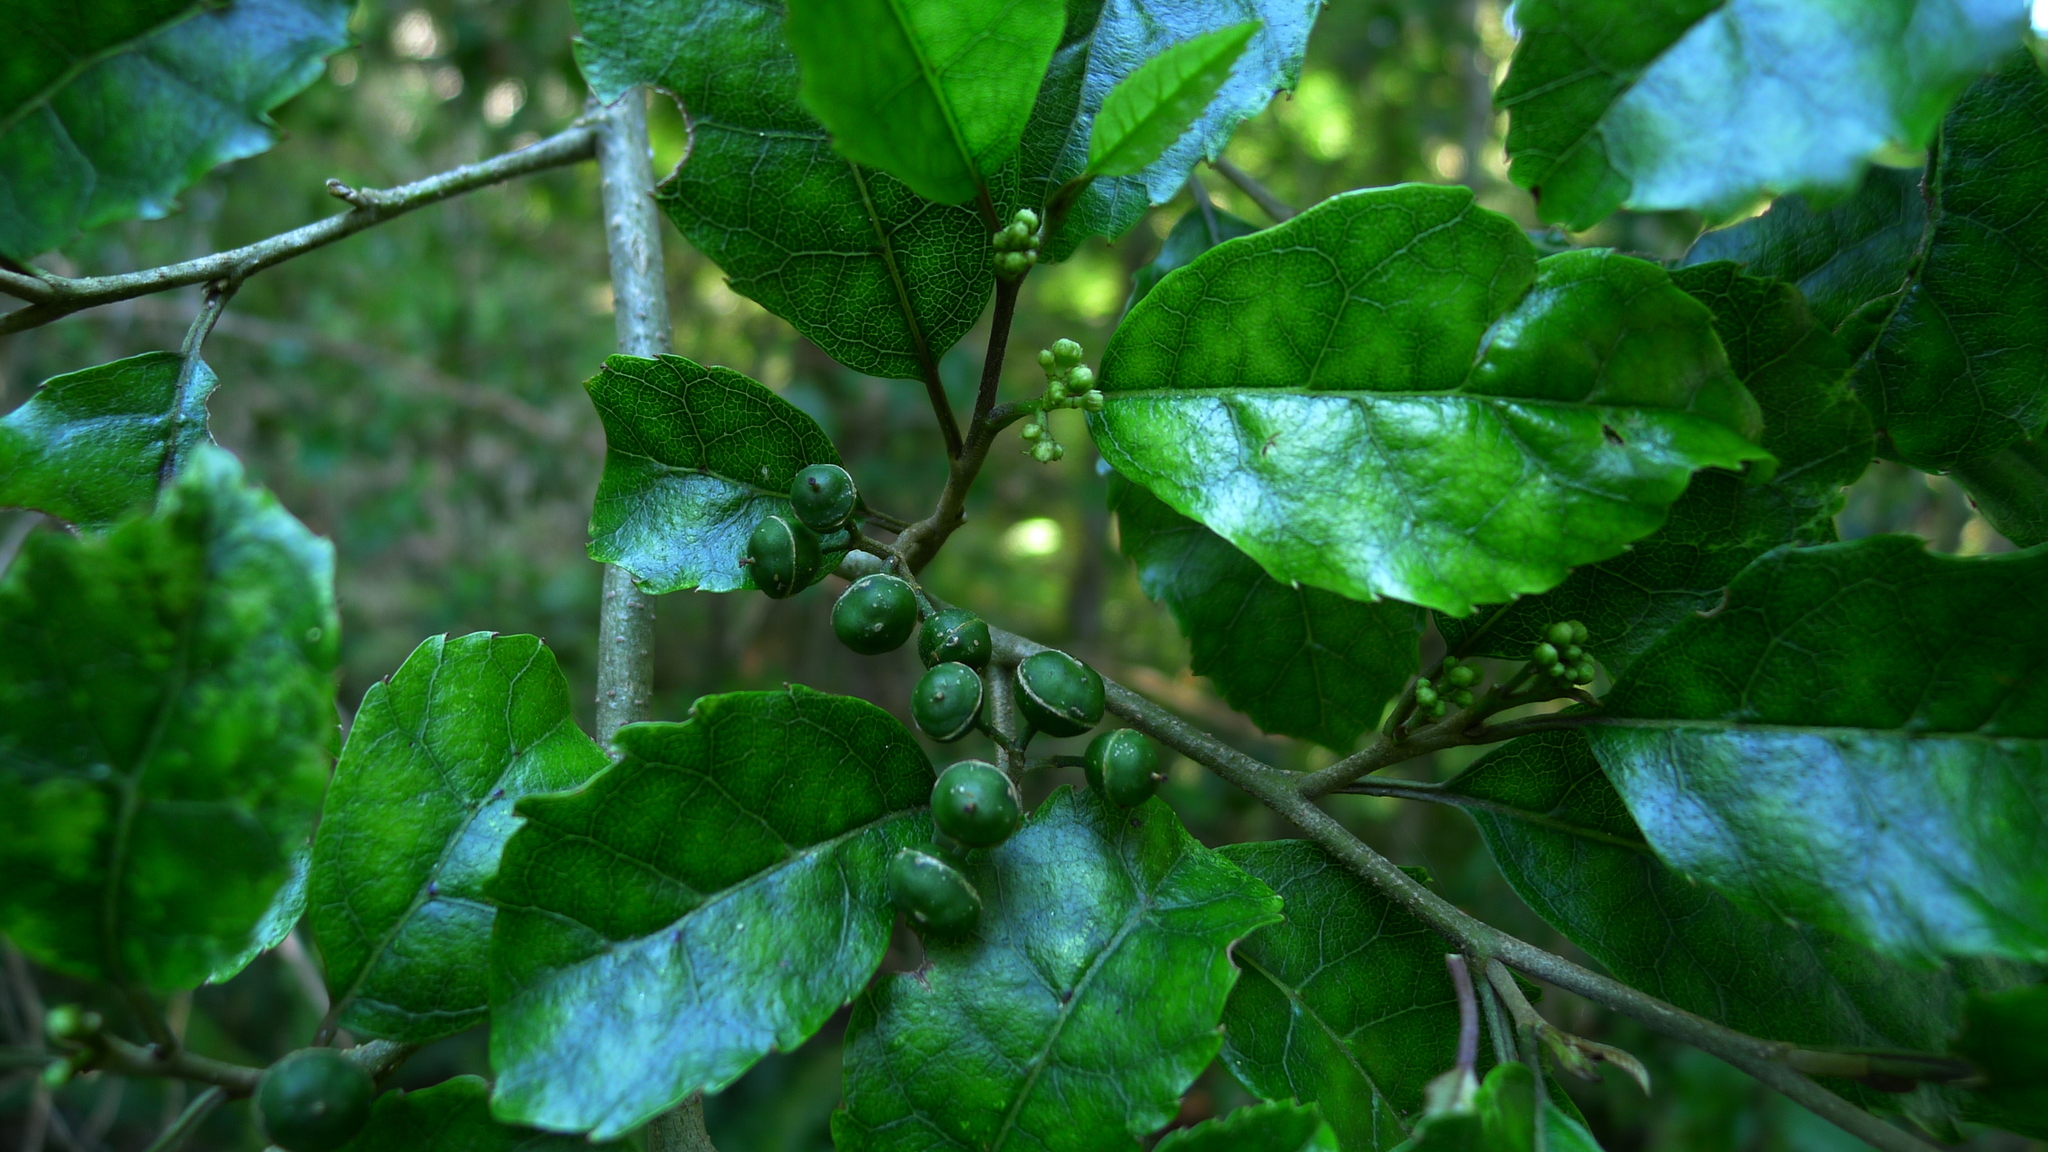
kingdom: Plantae
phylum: Tracheophyta
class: Magnoliopsida
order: Asterales
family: Rousseaceae
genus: Carpodetus
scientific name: Carpodetus serratus
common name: White mapau
